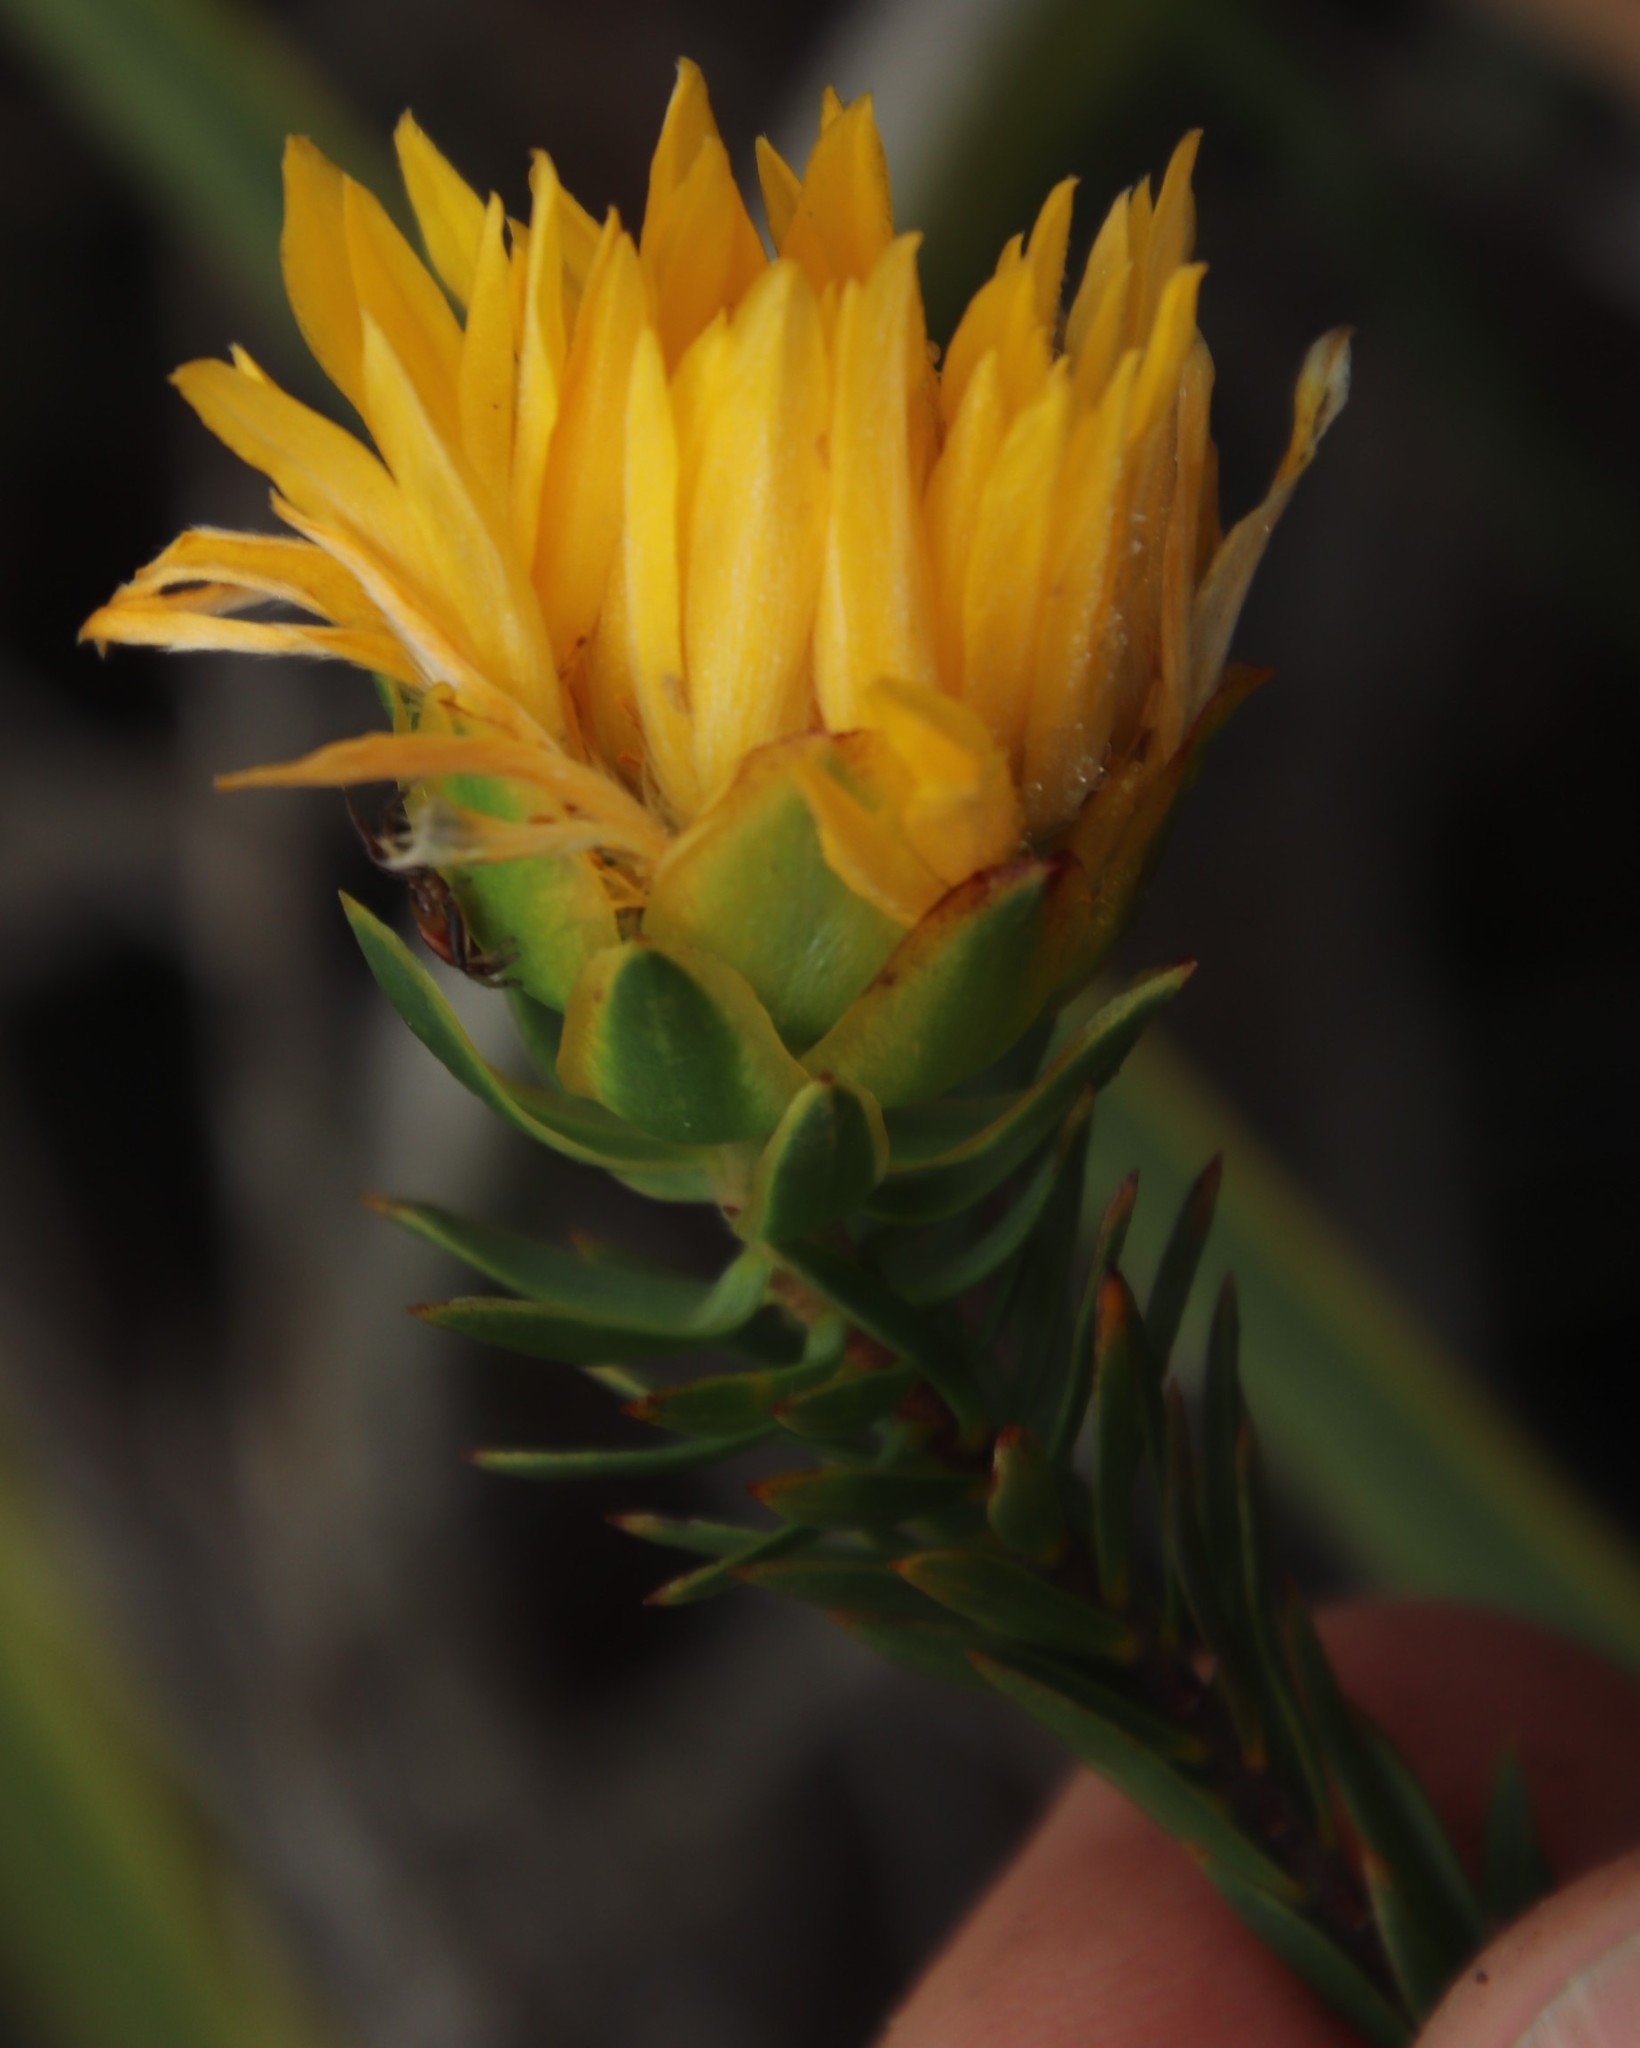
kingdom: Plantae
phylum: Tracheophyta
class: Magnoliopsida
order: Malvales
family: Thymelaeaceae
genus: Lachnaea
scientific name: Lachnaea aurea
